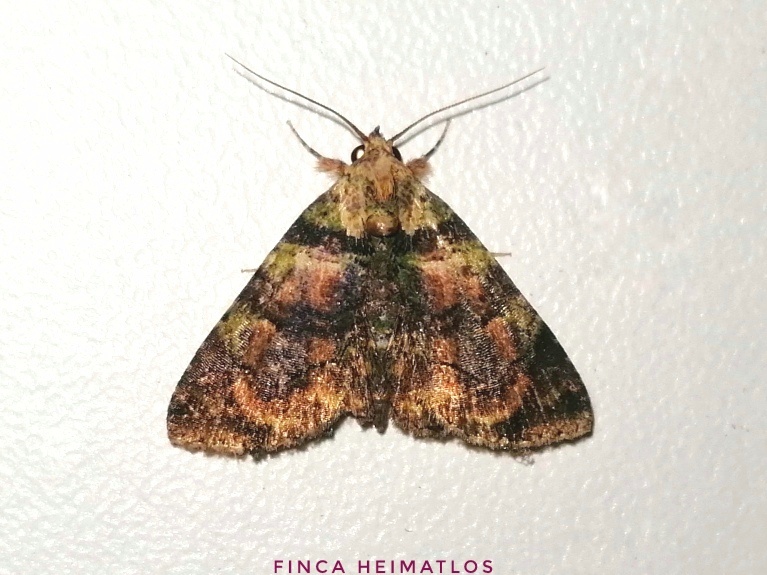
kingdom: Animalia
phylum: Arthropoda
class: Insecta
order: Lepidoptera
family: Erebidae
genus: Metalectra
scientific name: Metalectra picta
